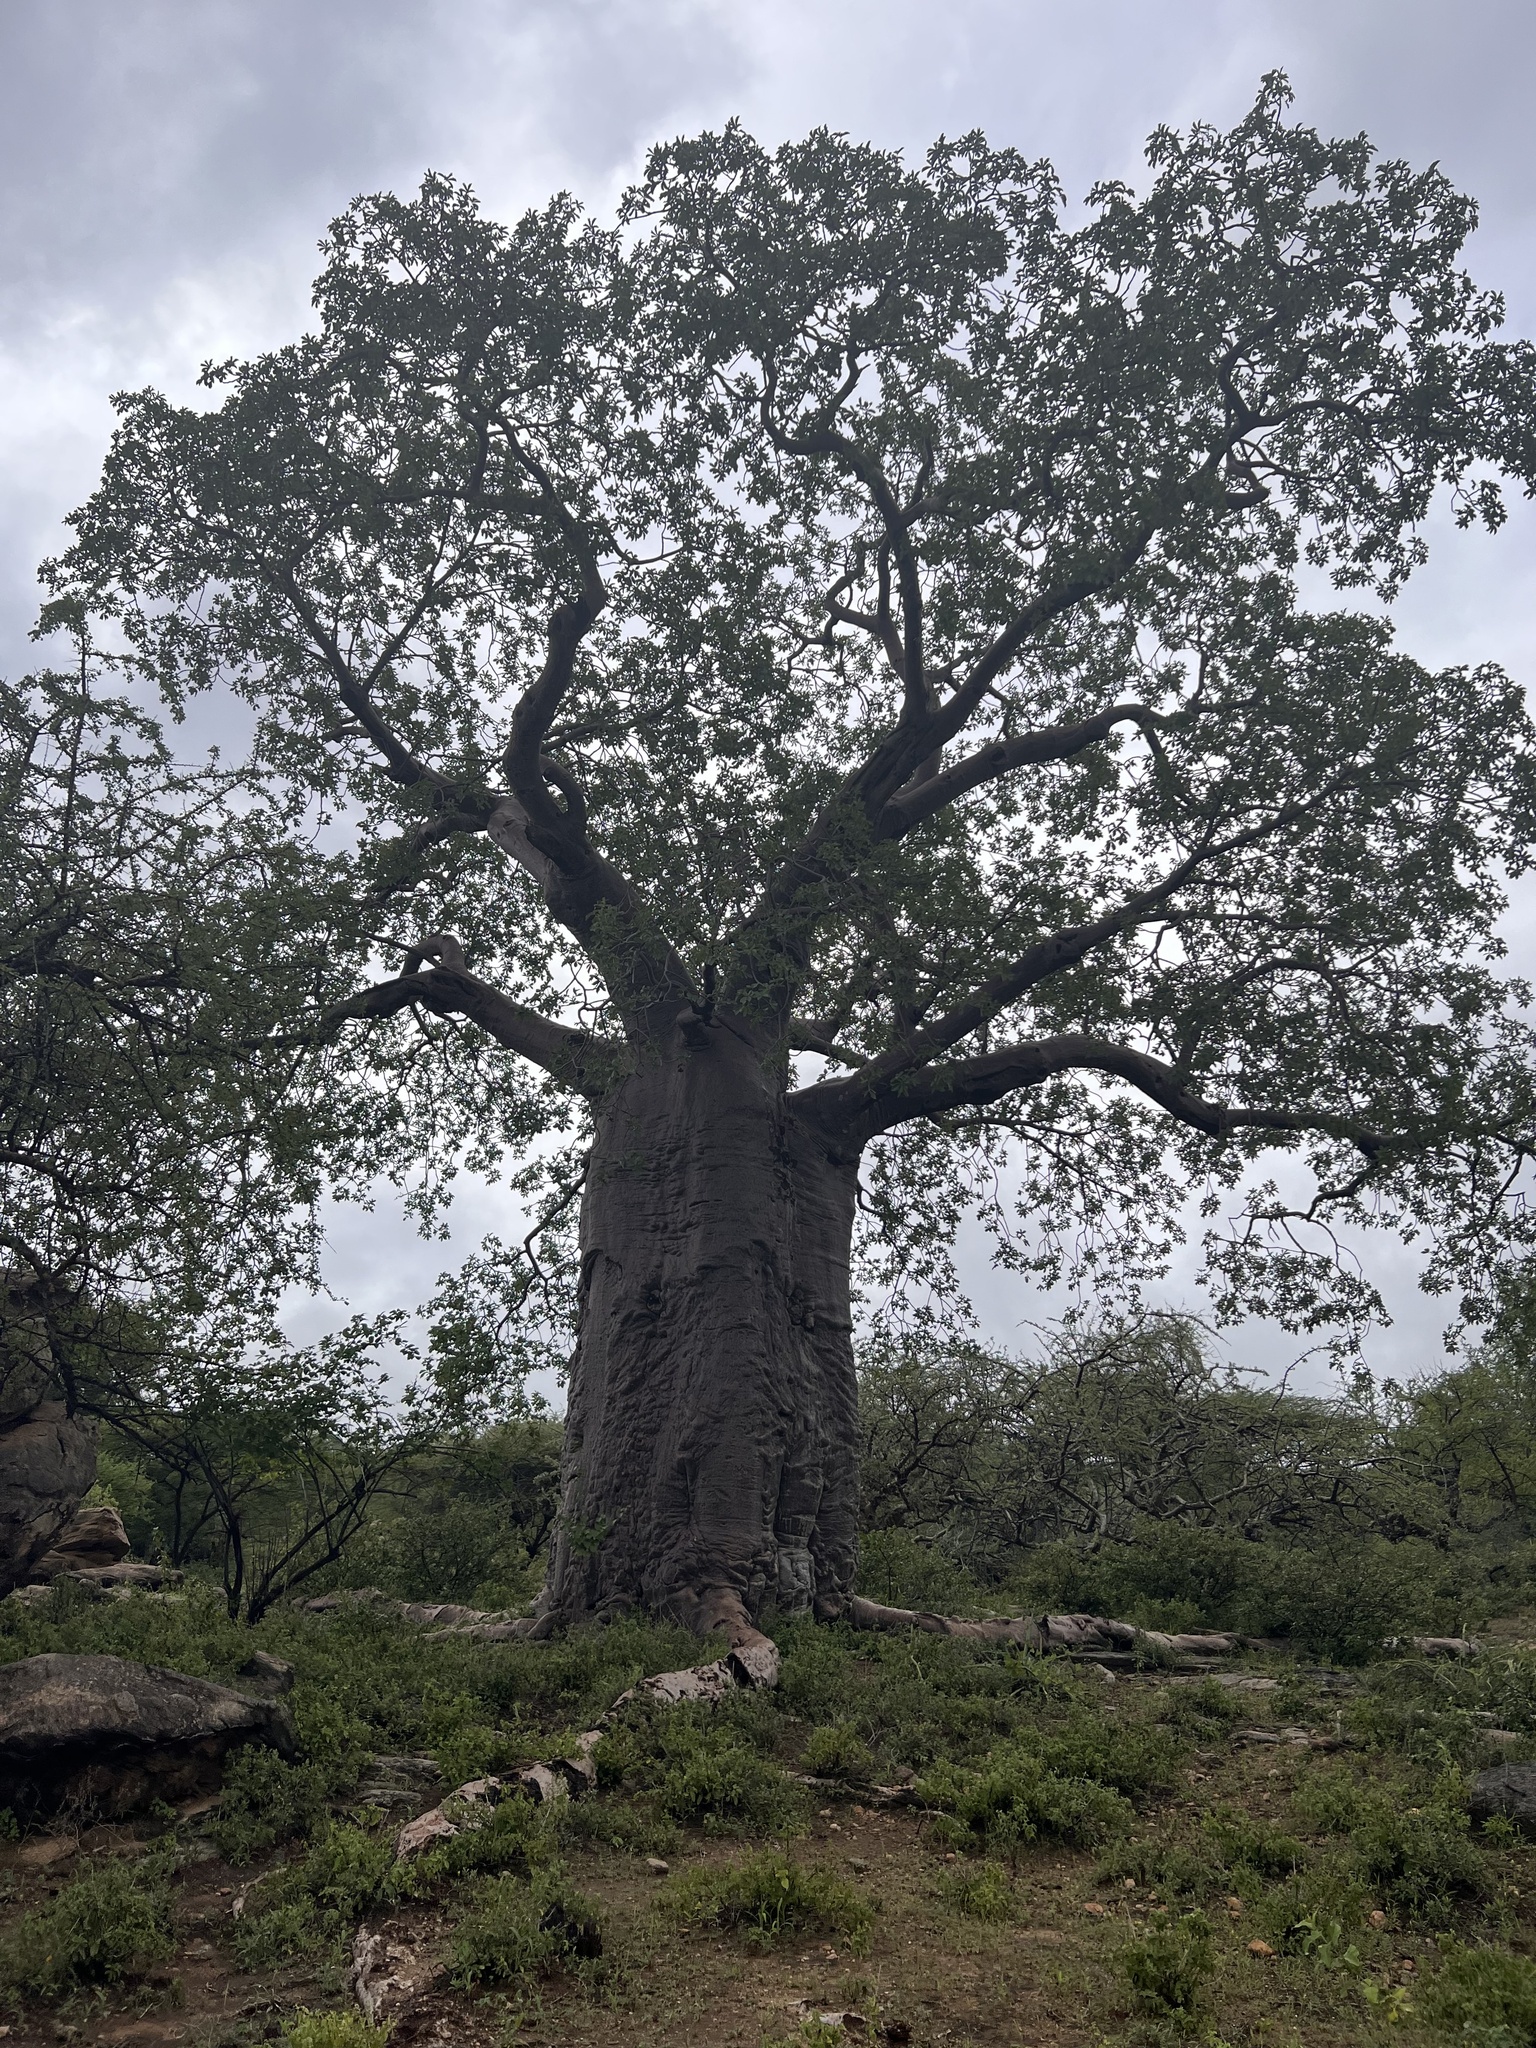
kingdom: Plantae
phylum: Tracheophyta
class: Magnoliopsida
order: Malvales
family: Malvaceae
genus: Adansonia
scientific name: Adansonia digitata
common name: Dead-rat-tree
